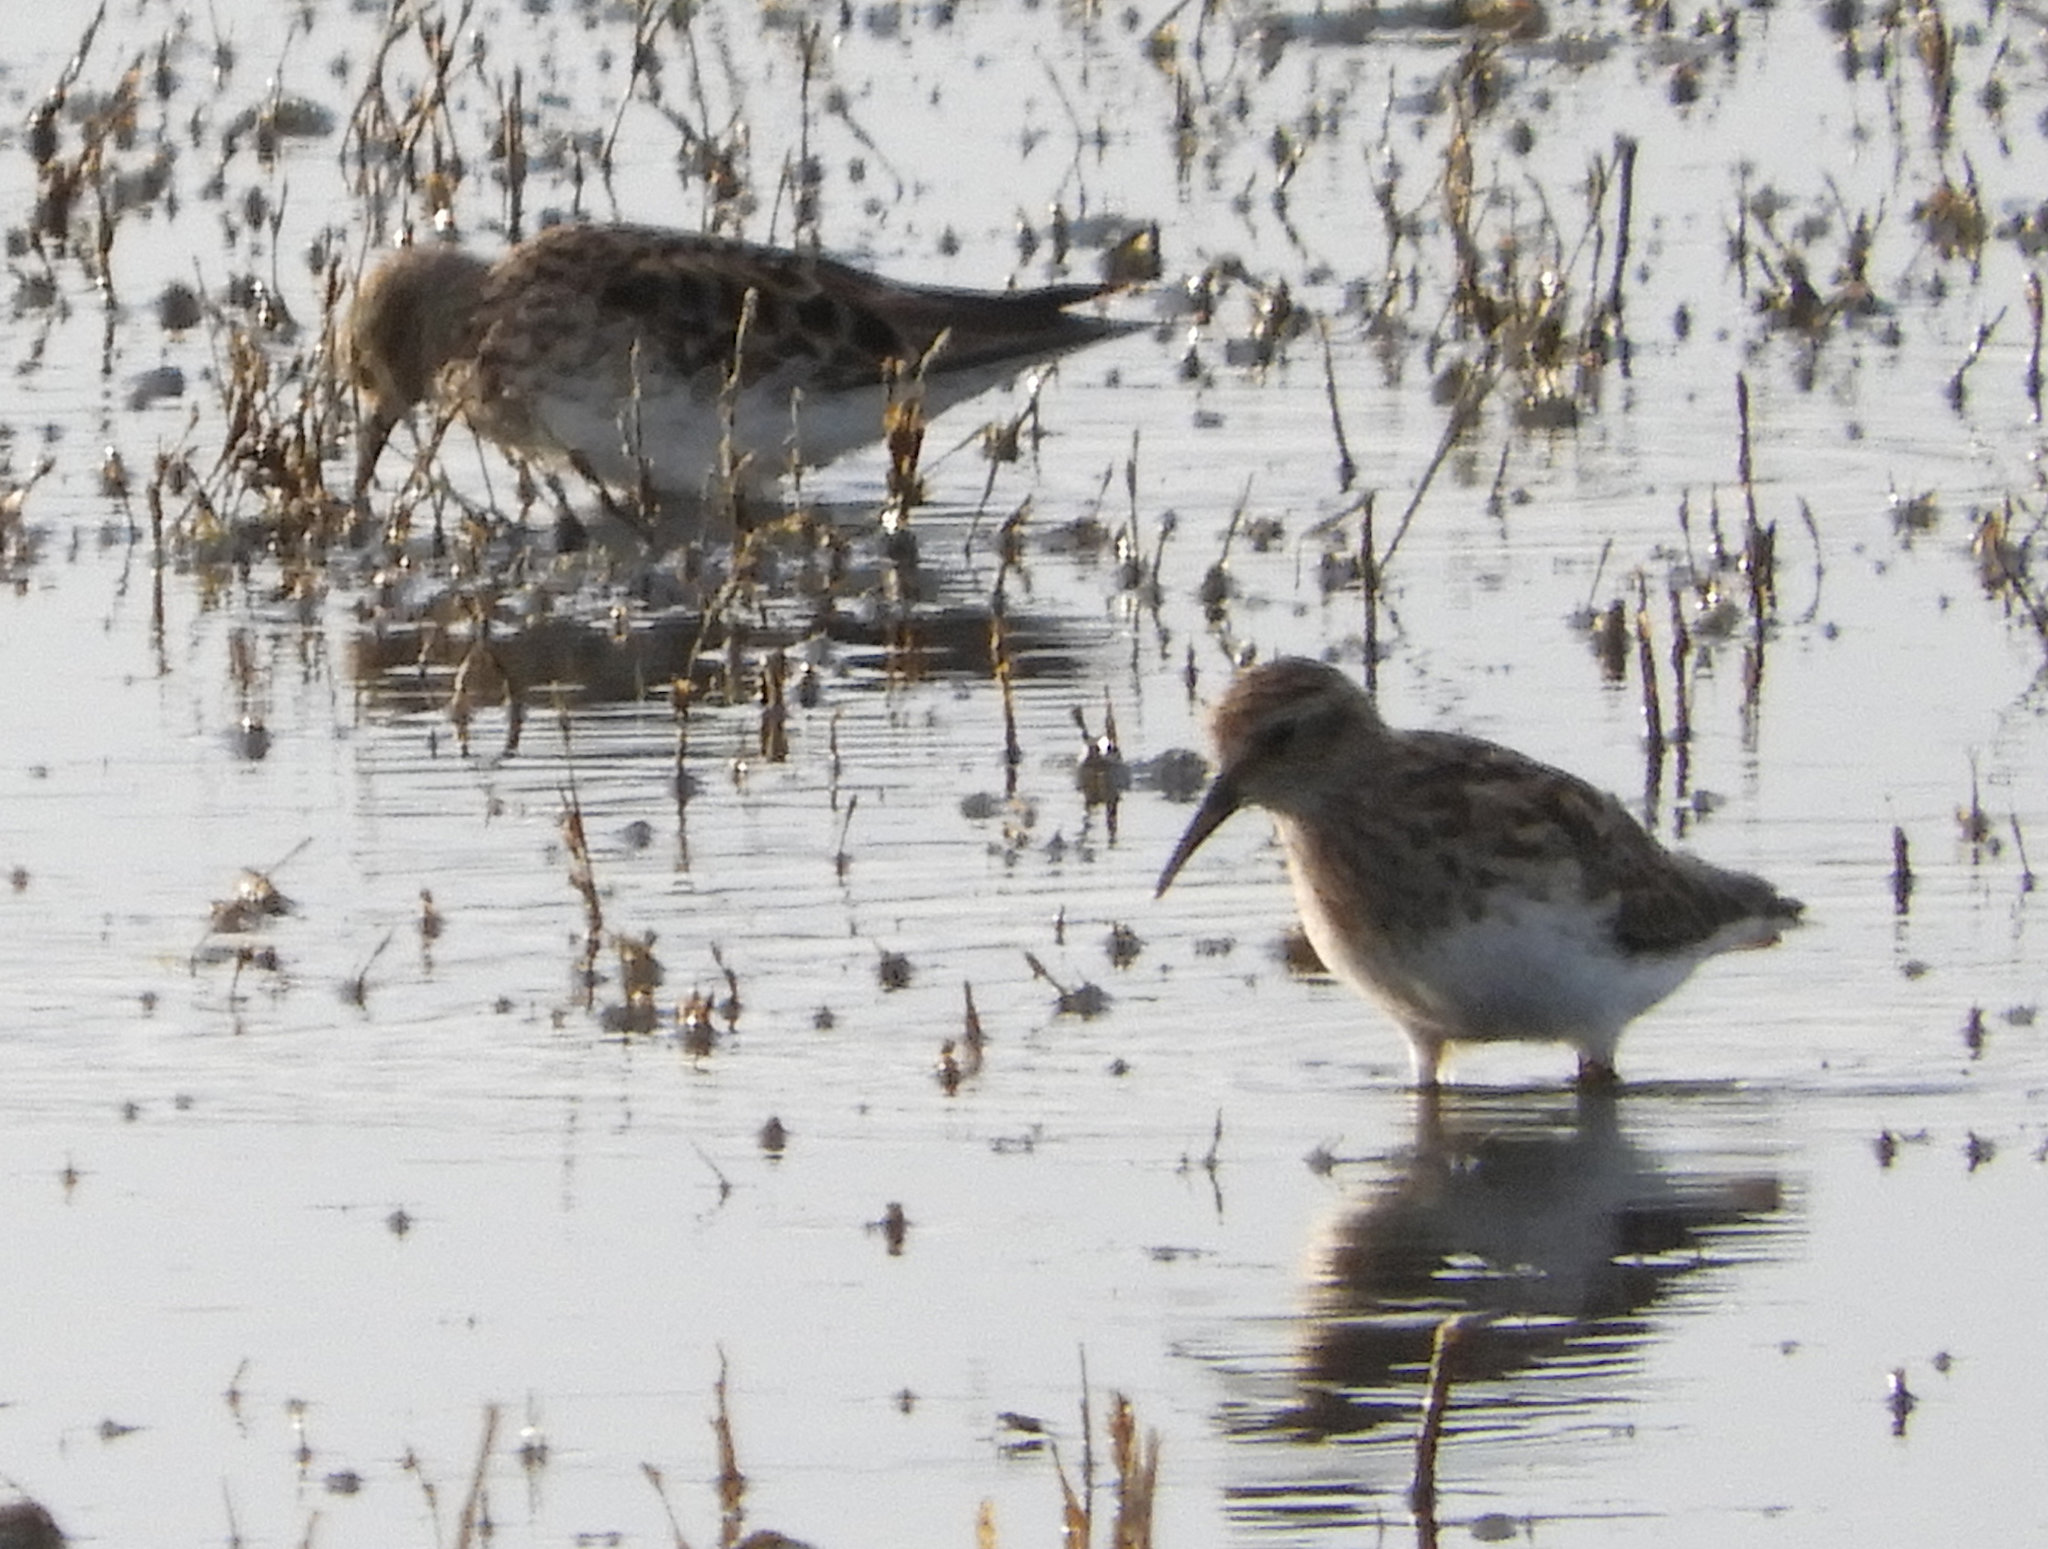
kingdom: Animalia
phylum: Chordata
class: Aves
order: Charadriiformes
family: Scolopacidae
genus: Calidris
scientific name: Calidris minutilla
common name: Least sandpiper
